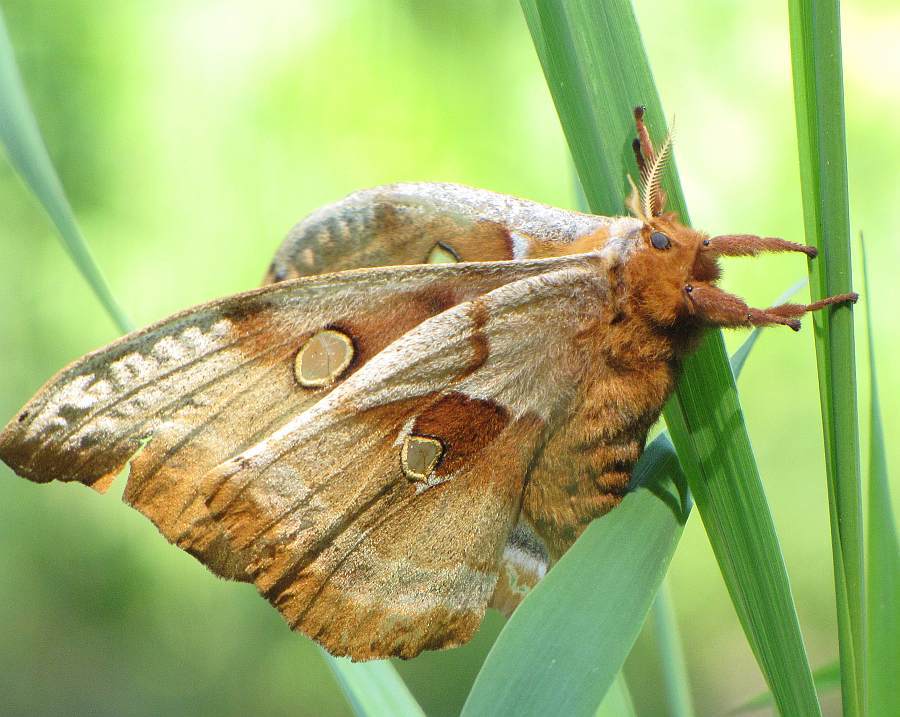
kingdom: Animalia
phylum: Arthropoda
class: Insecta
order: Lepidoptera
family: Saturniidae
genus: Antheraea
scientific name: Antheraea polyphemus
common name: Polyphemus moth
